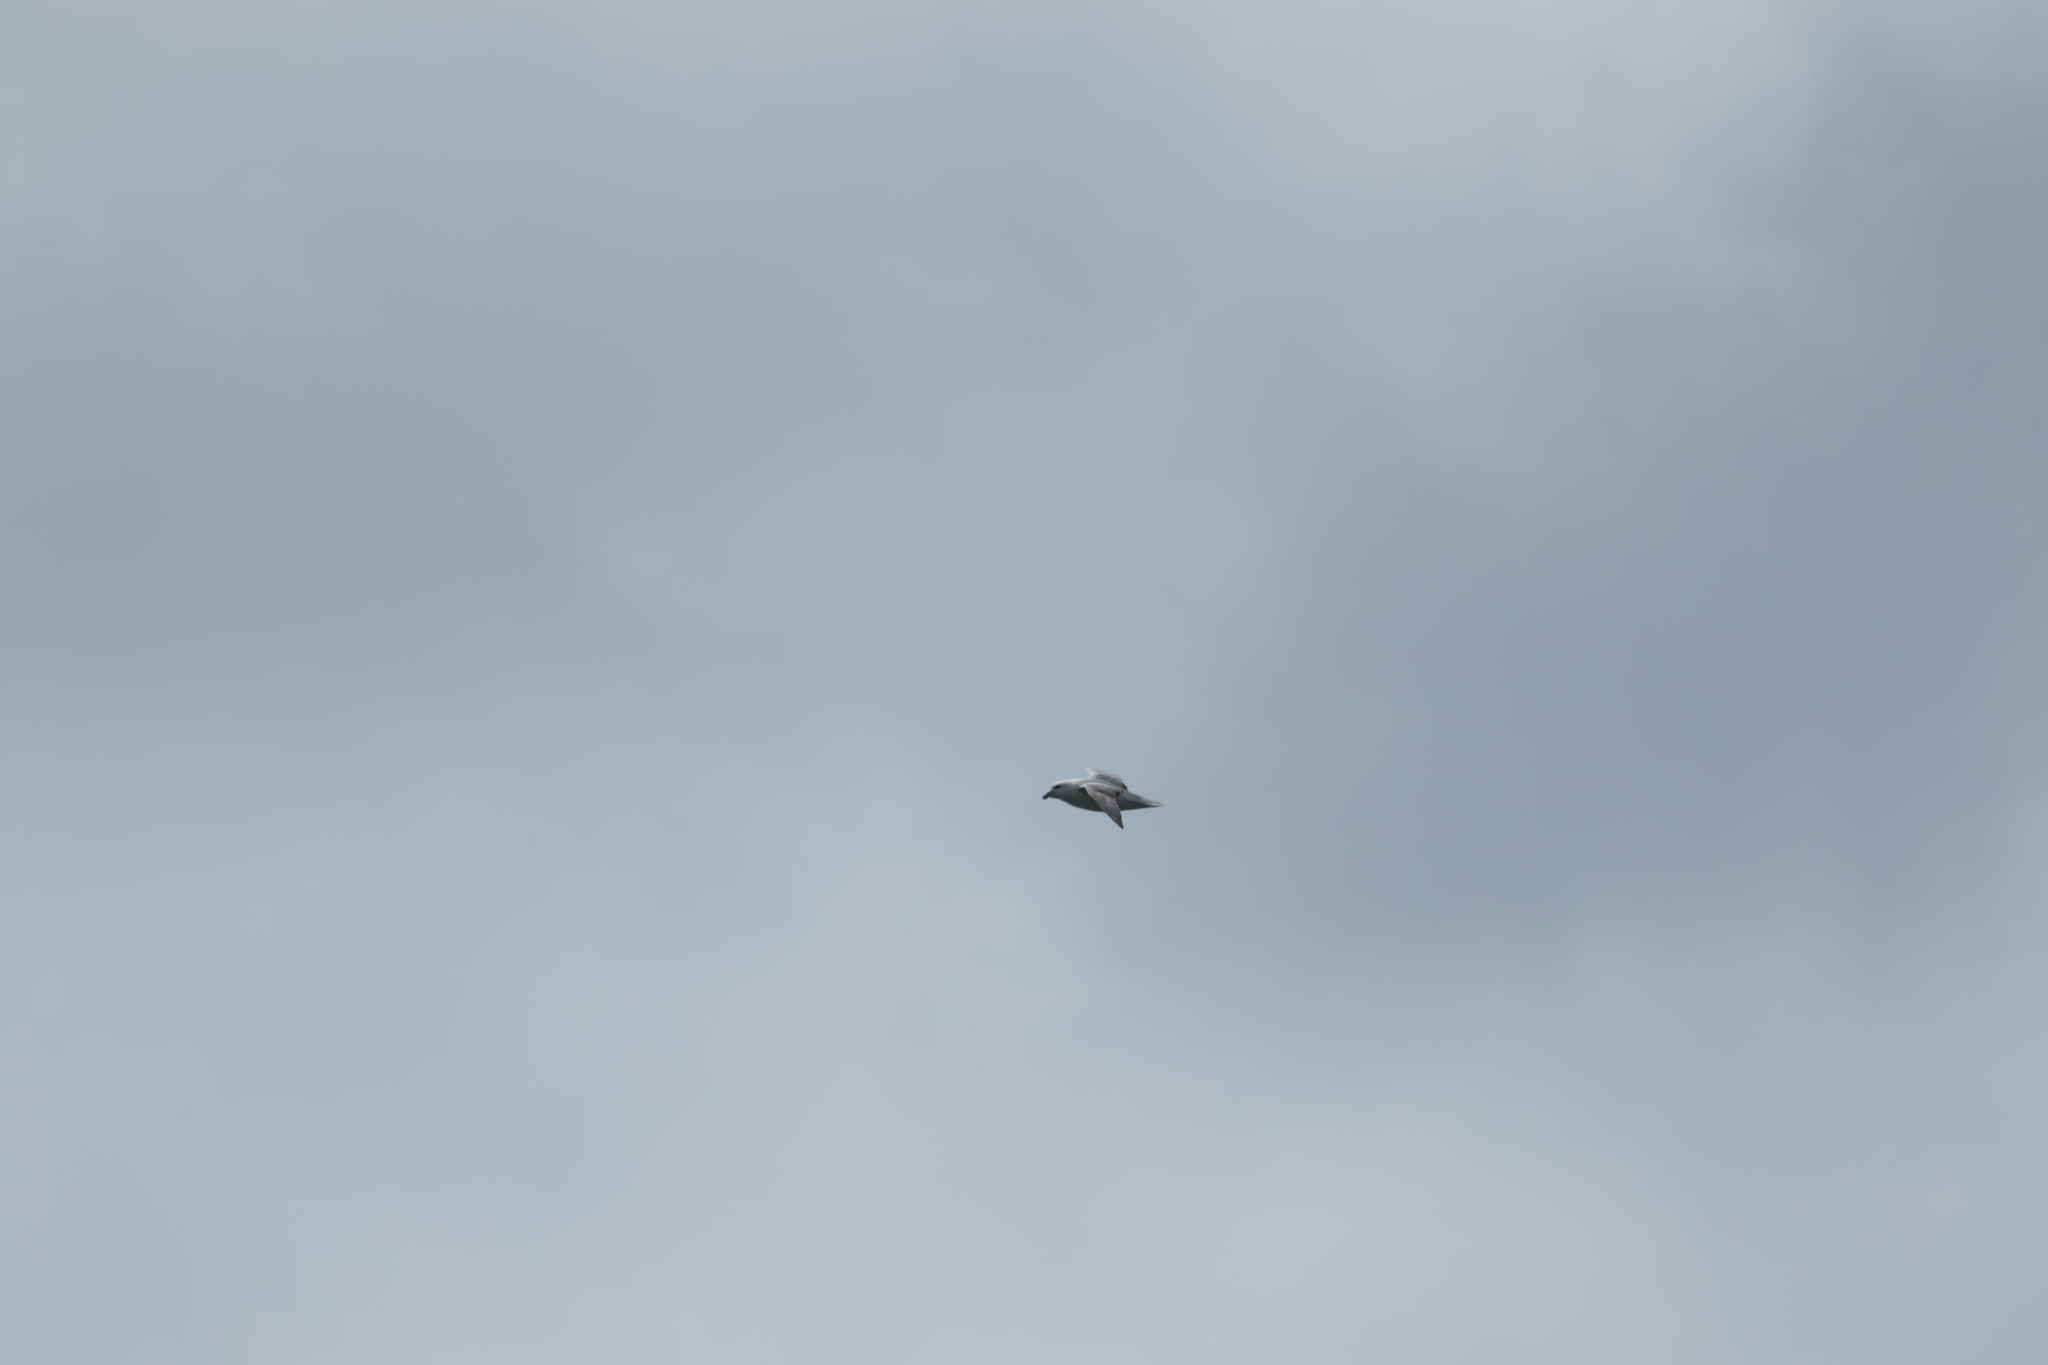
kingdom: Animalia
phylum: Chordata
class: Aves
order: Procellariiformes
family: Procellariidae
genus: Fulmarus
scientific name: Fulmarus glacialis
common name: Northern fulmar
